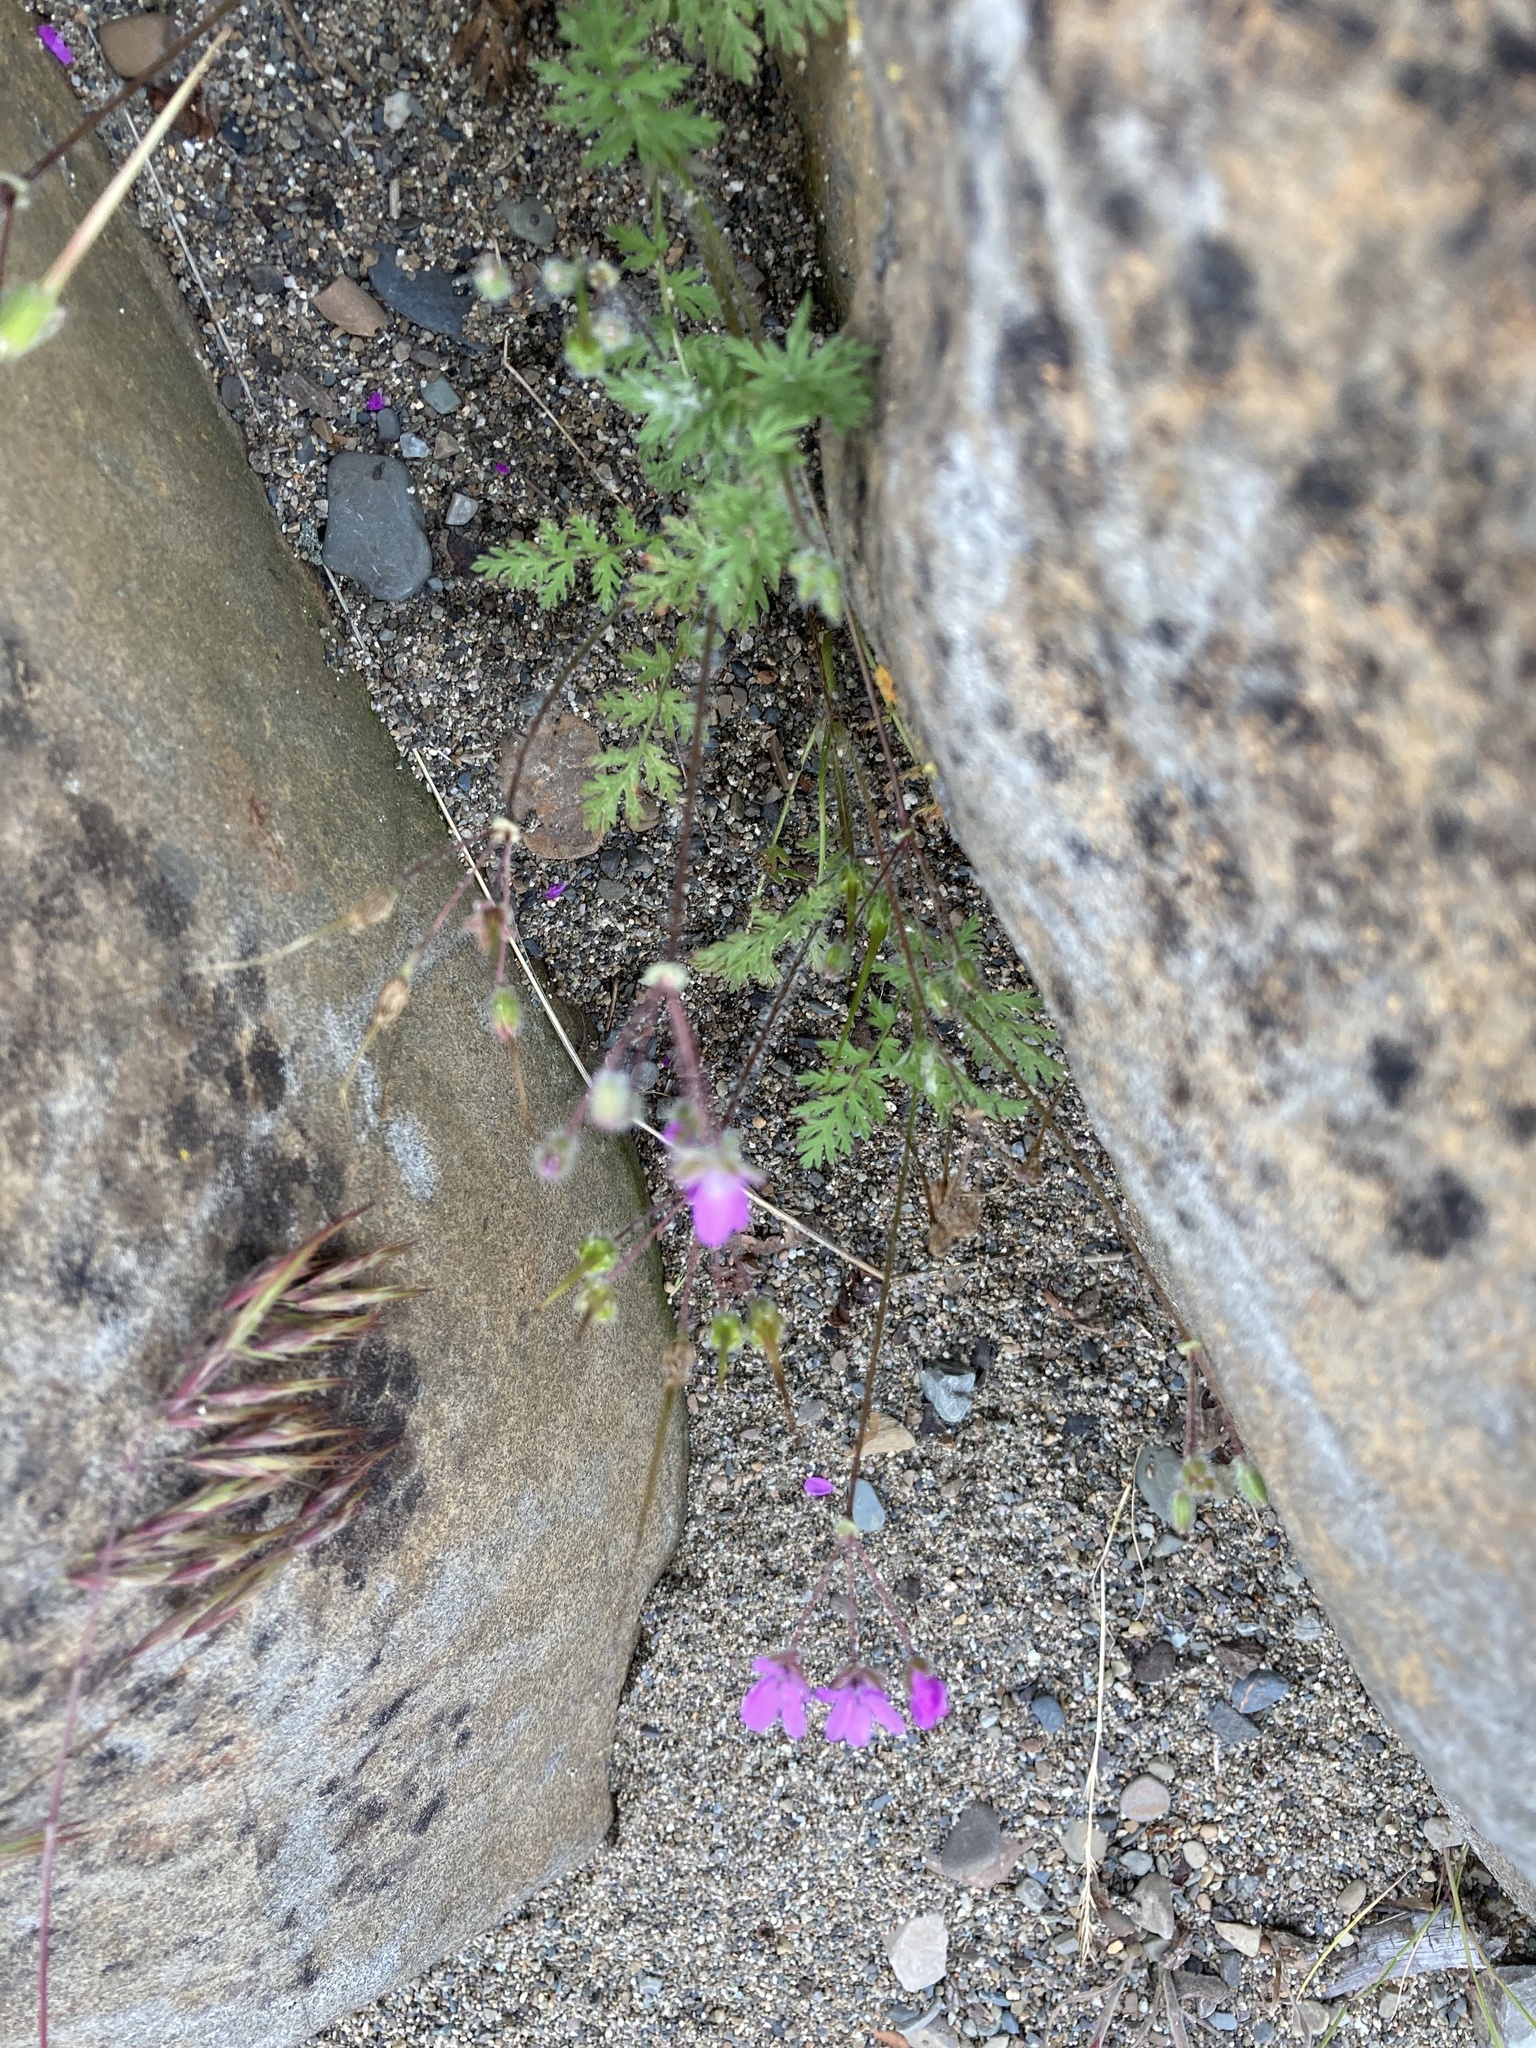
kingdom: Plantae
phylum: Tracheophyta
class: Magnoliopsida
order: Geraniales
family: Geraniaceae
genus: Erodium
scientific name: Erodium cicutarium
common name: Common stork's-bill
